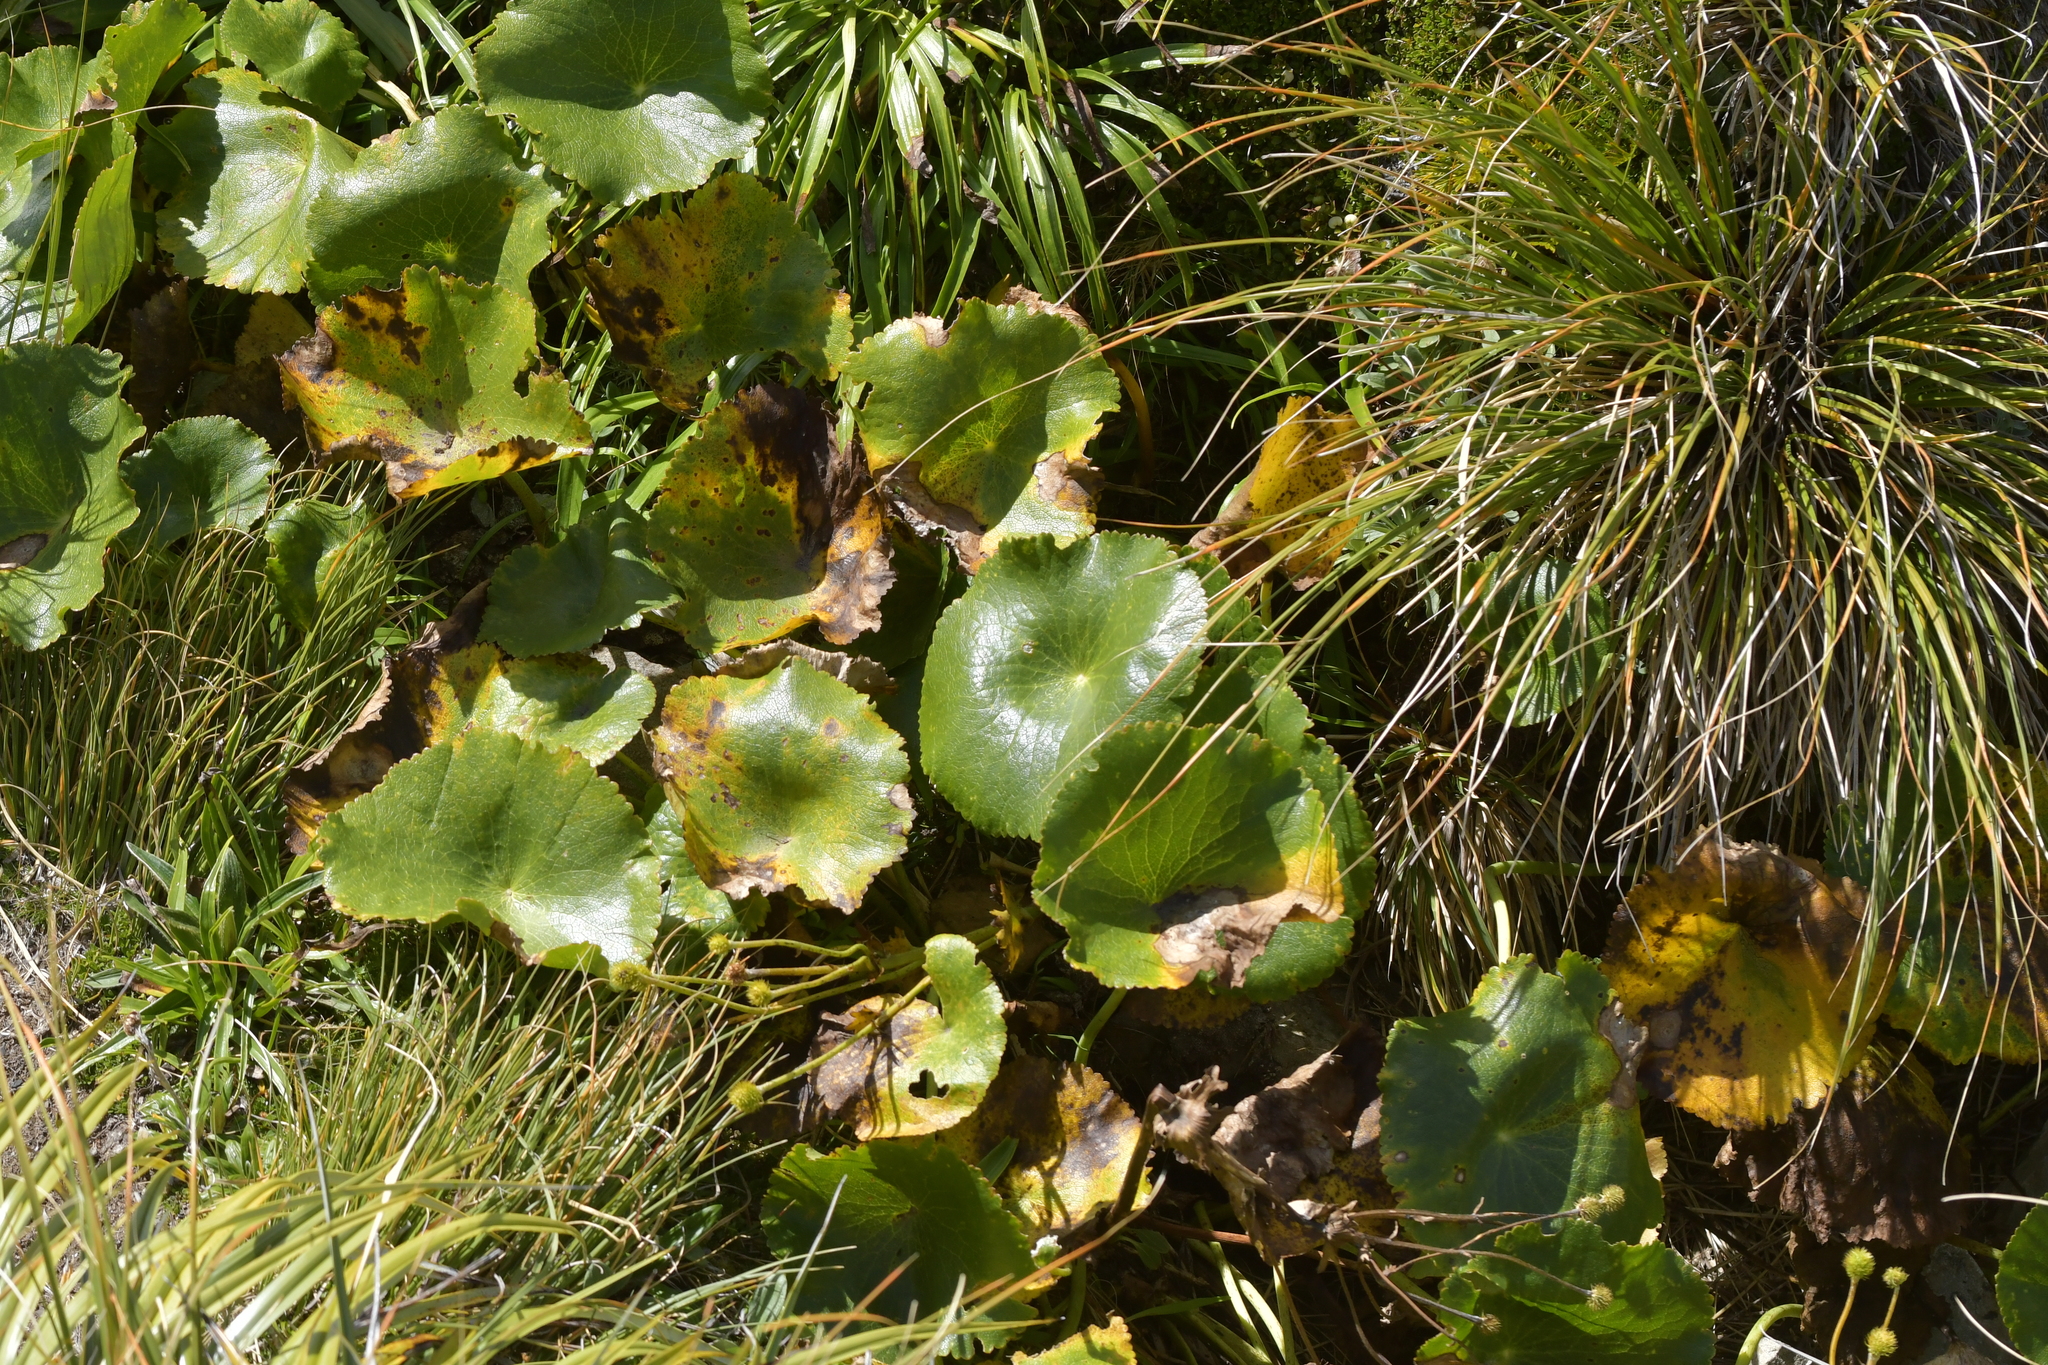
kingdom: Plantae
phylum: Tracheophyta
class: Magnoliopsida
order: Ranunculales
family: Ranunculaceae
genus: Ranunculus
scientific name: Ranunculus lyallii
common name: Mountain-lily
